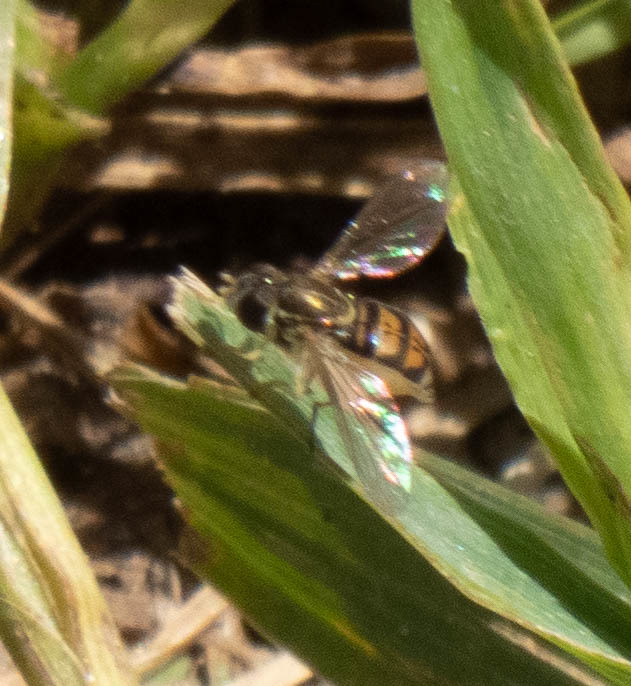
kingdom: Animalia
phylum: Arthropoda
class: Insecta
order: Diptera
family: Syrphidae
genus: Toxomerus
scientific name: Toxomerus marginatus
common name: Syrphid fly
